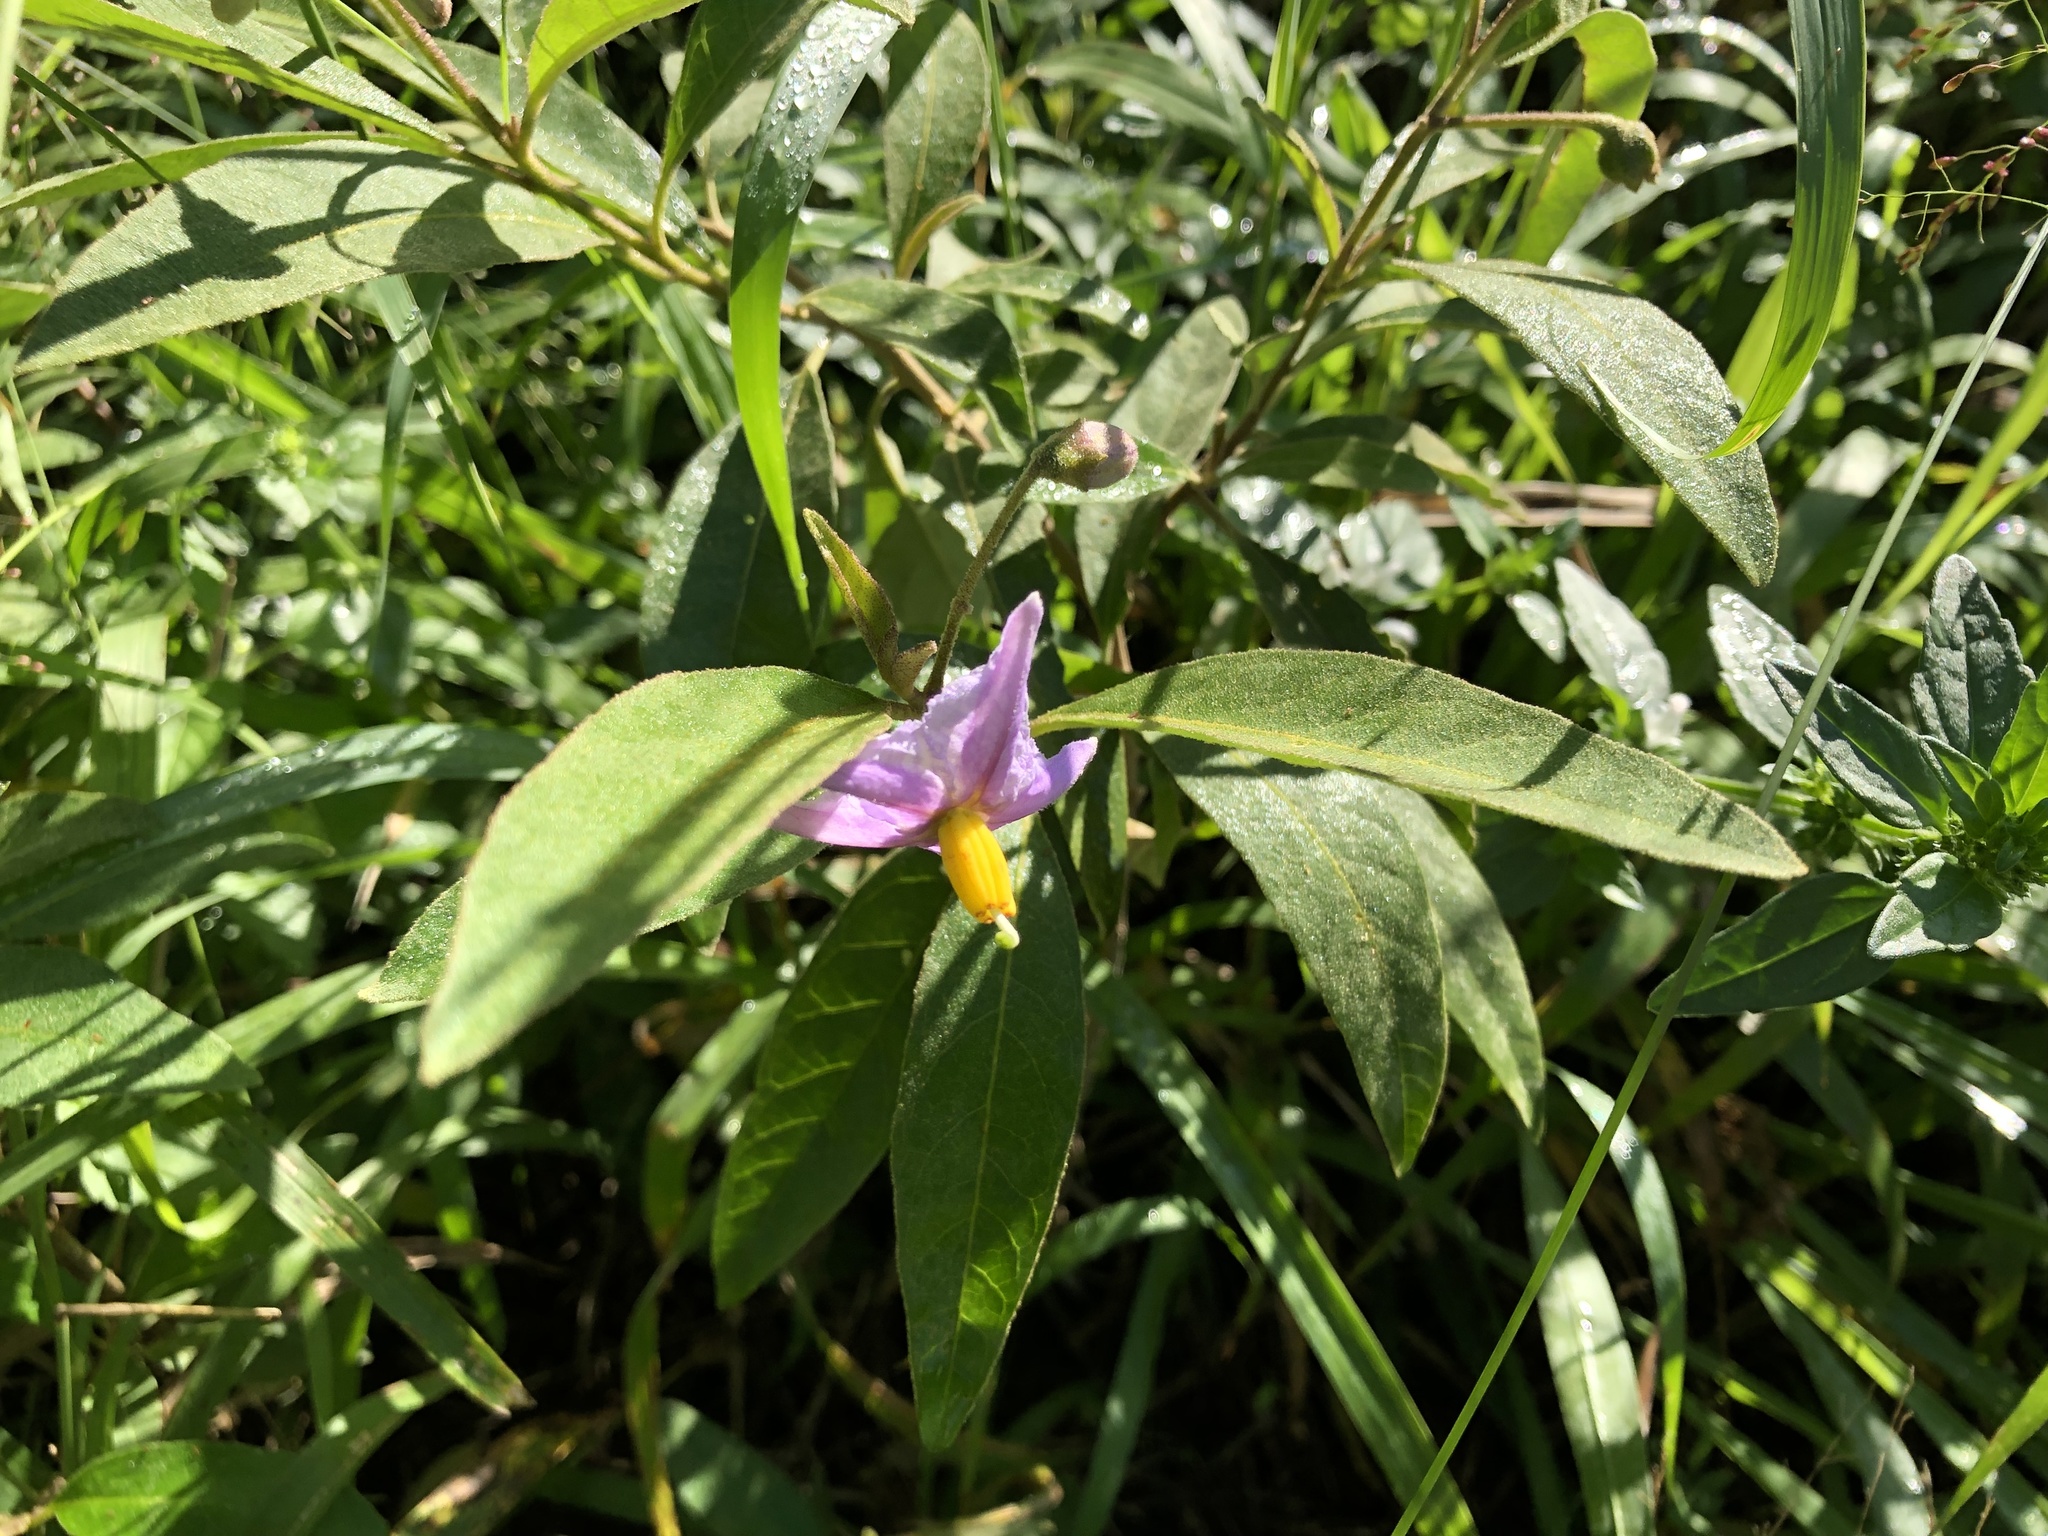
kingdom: Plantae
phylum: Tracheophyta
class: Magnoliopsida
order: Solanales
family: Solanaceae
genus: Solanum
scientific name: Solanum campylacanthum
